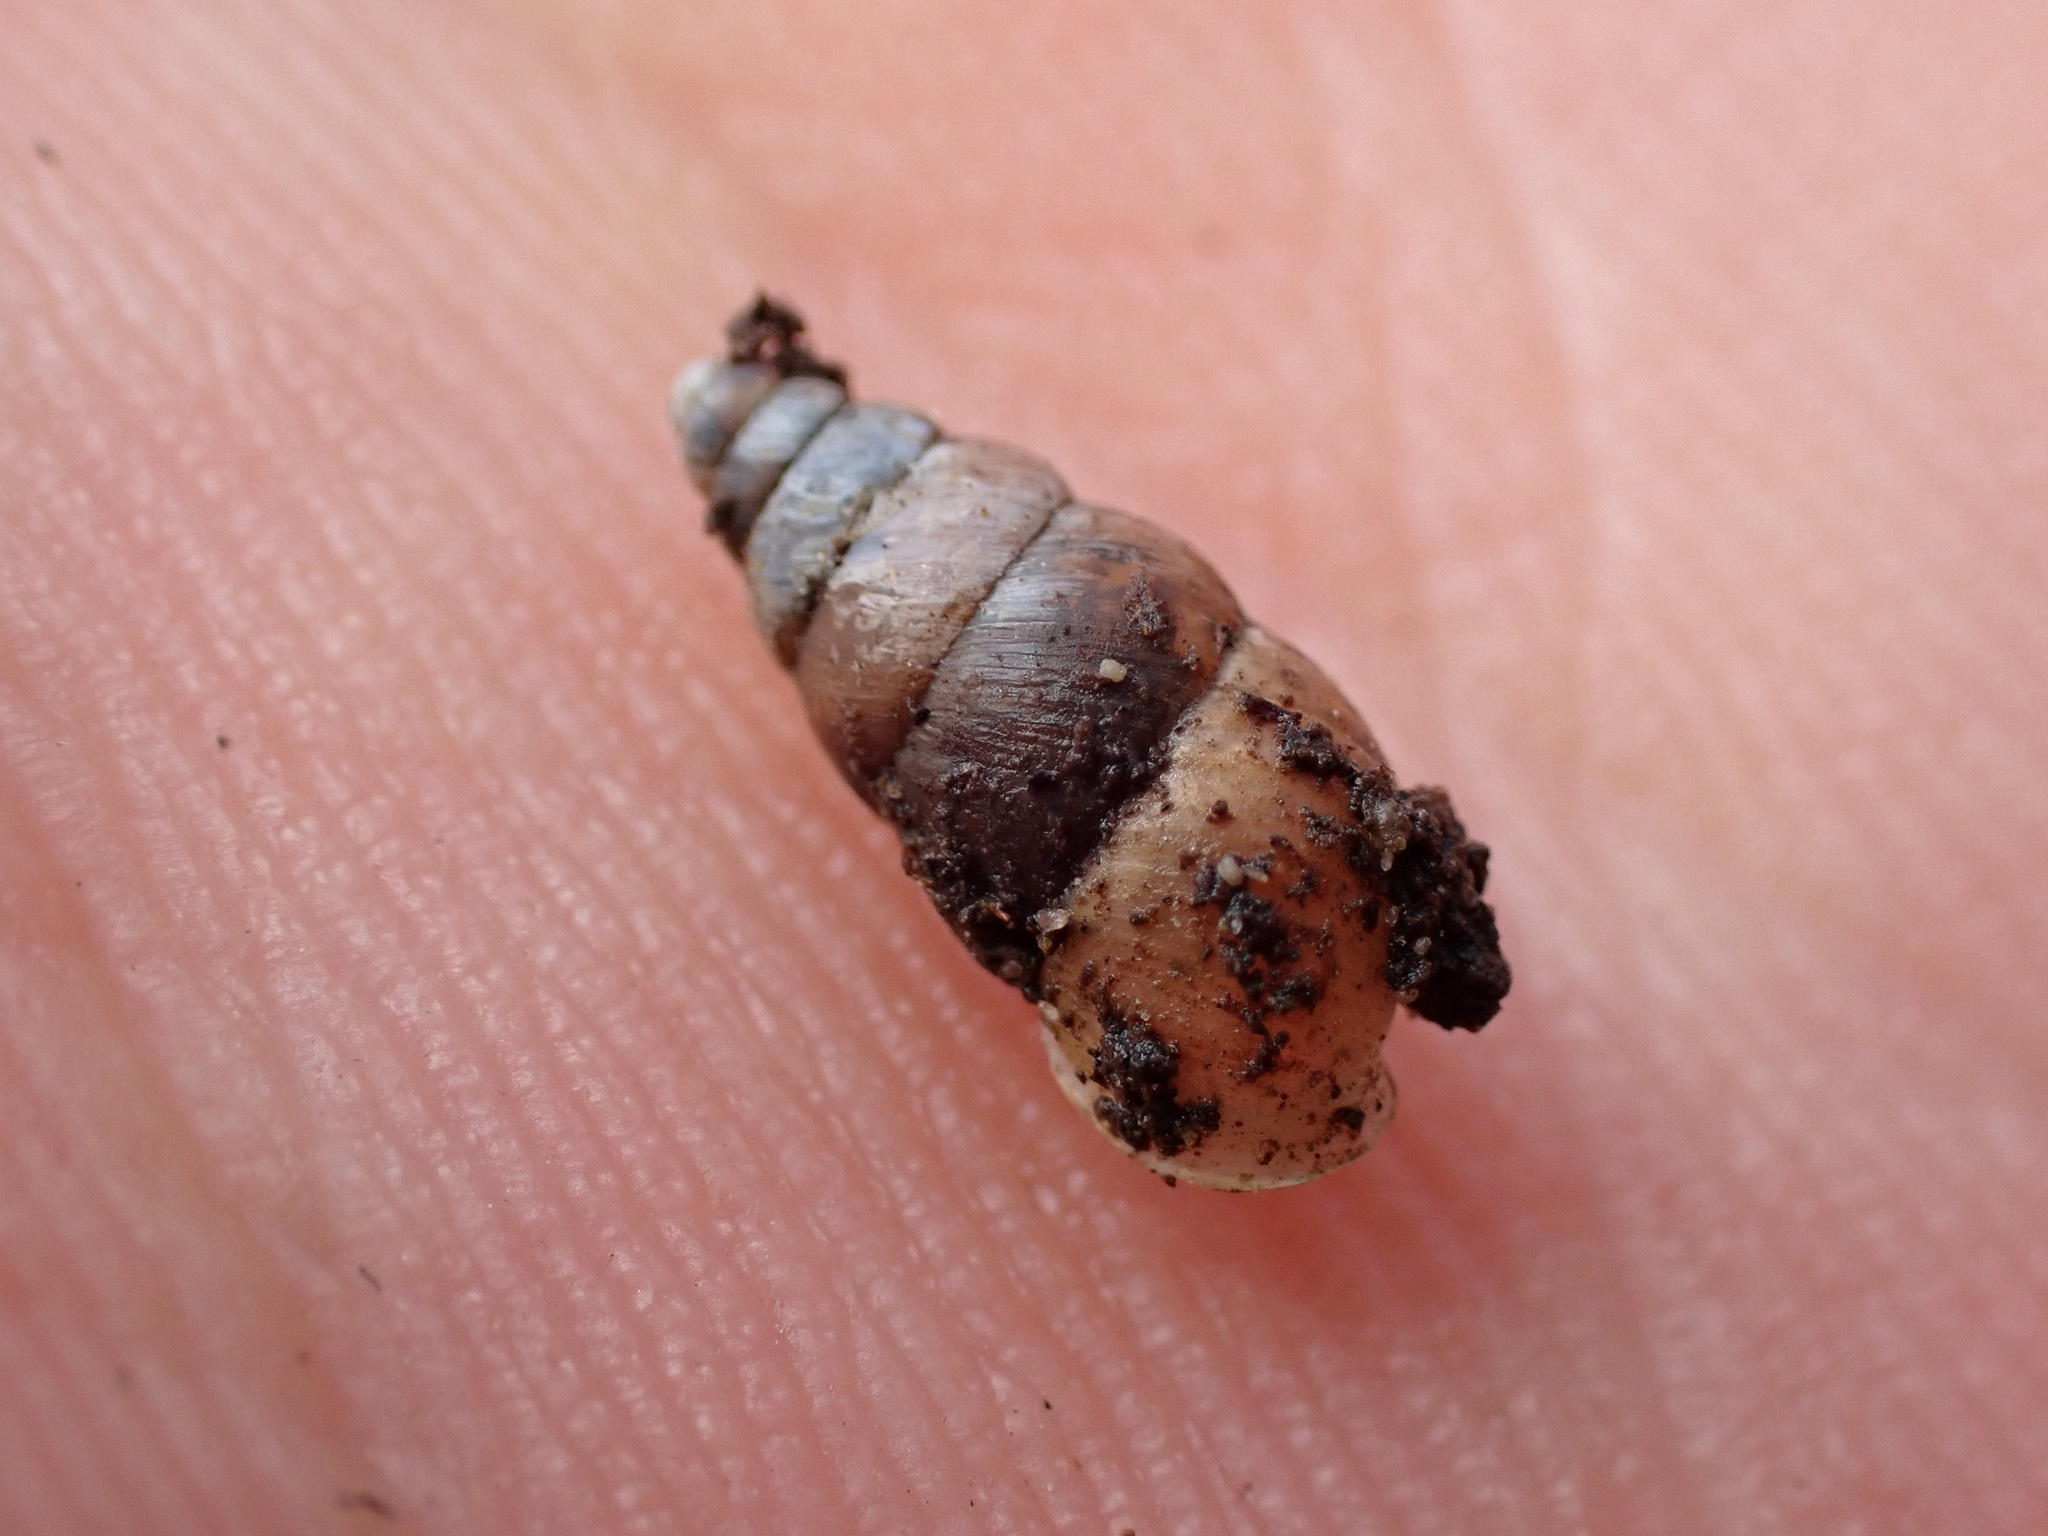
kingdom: Animalia
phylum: Mollusca
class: Gastropoda
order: Stylommatophora
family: Enidae
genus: Merdigera
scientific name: Merdigera obscura
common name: Lesser bulin
